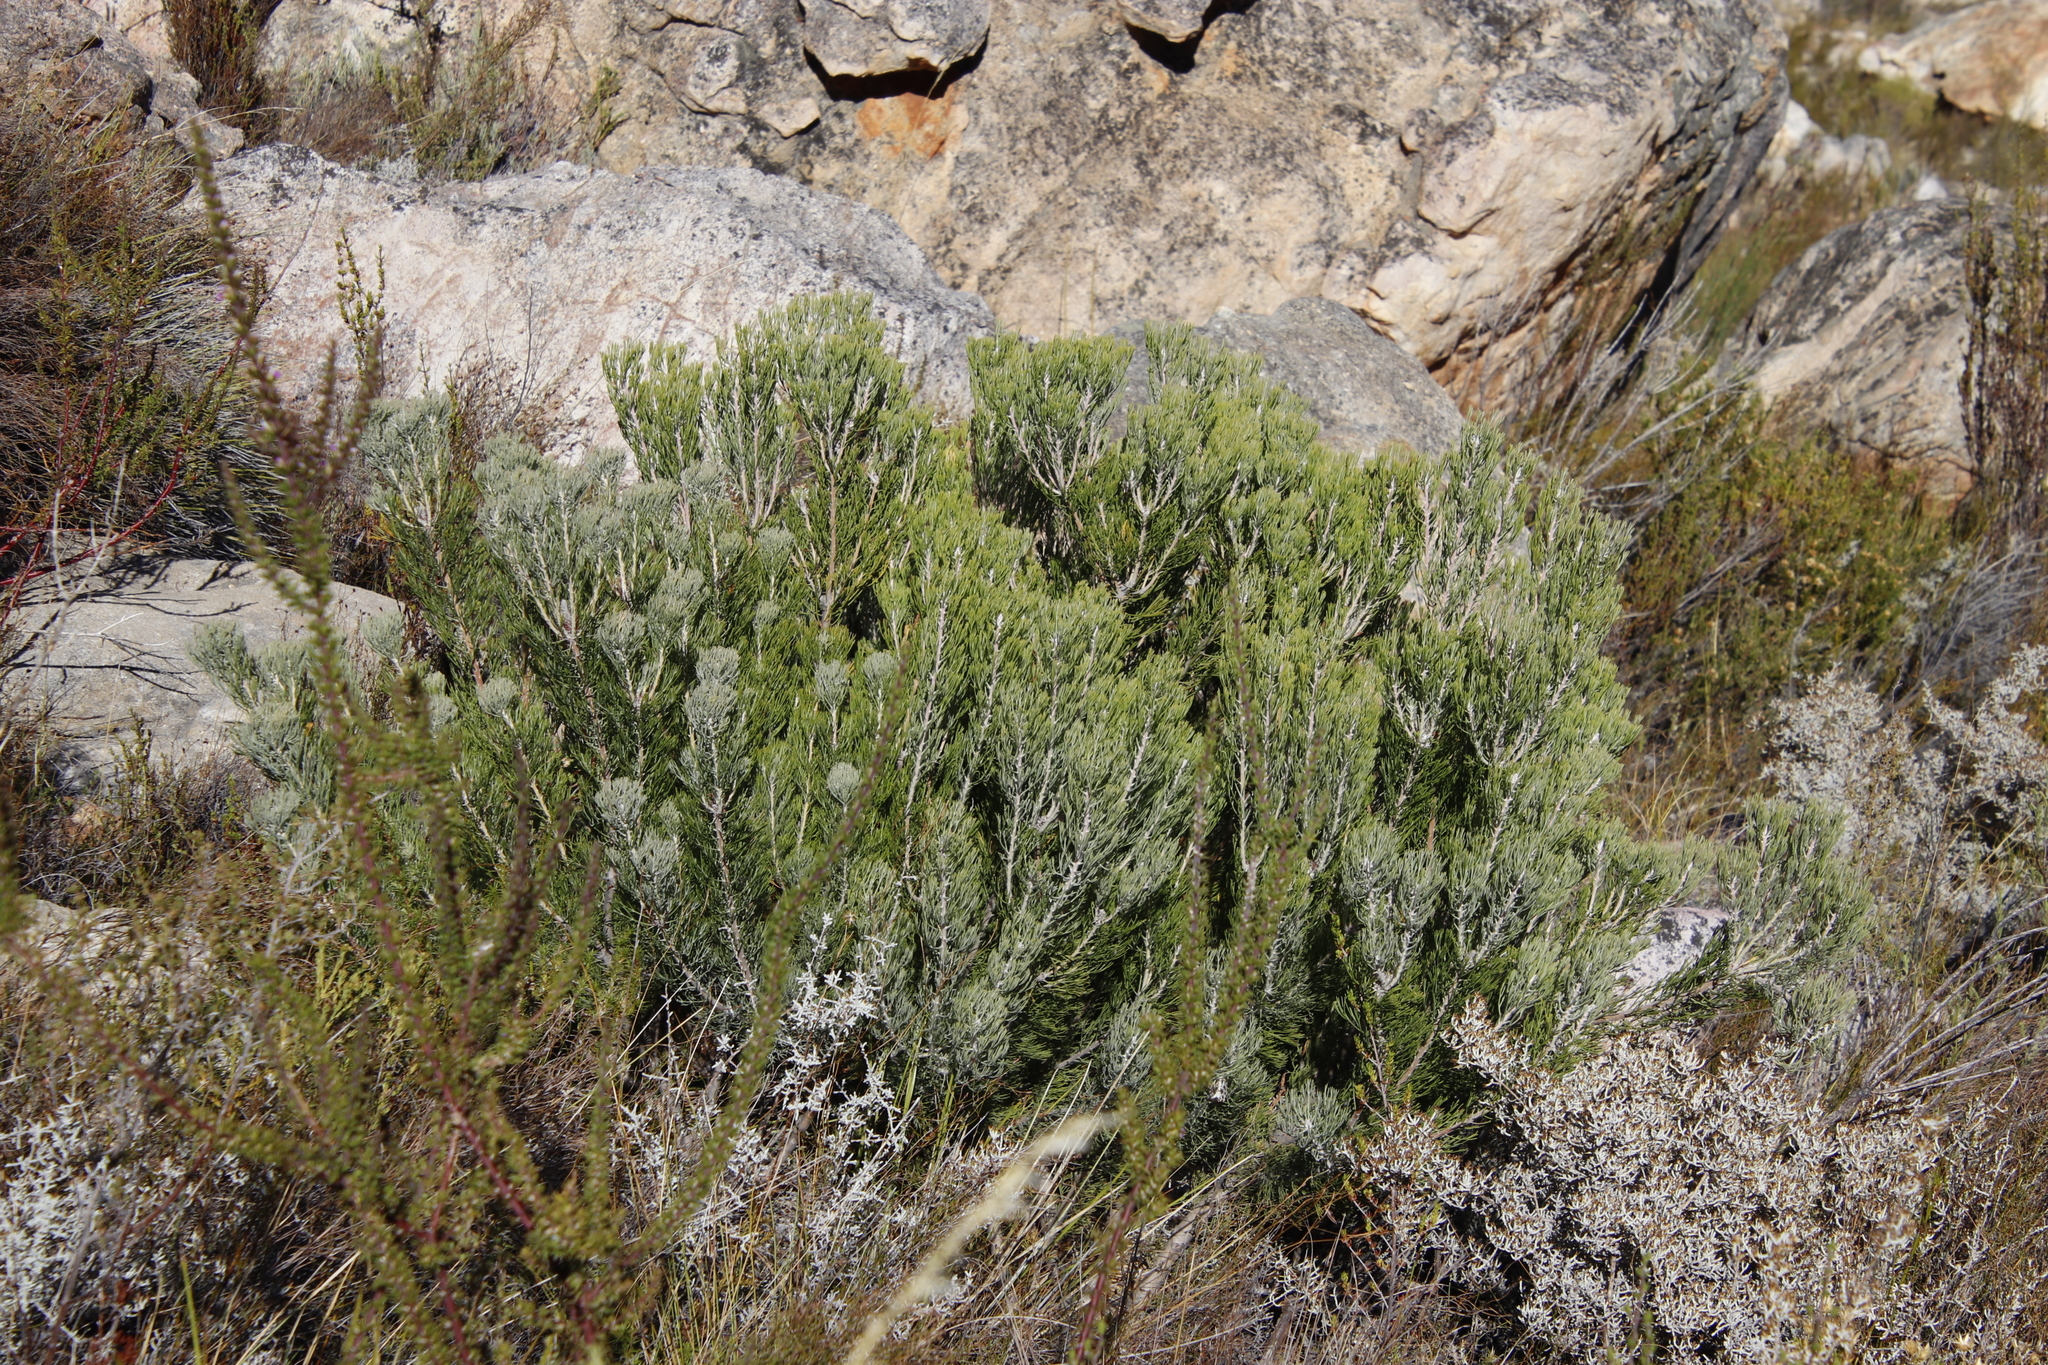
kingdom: Plantae
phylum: Tracheophyta
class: Magnoliopsida
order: Proteales
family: Proteaceae
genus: Paranomus
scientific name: Paranomus bracteolaris
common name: Bokkeveld tree sceptre
